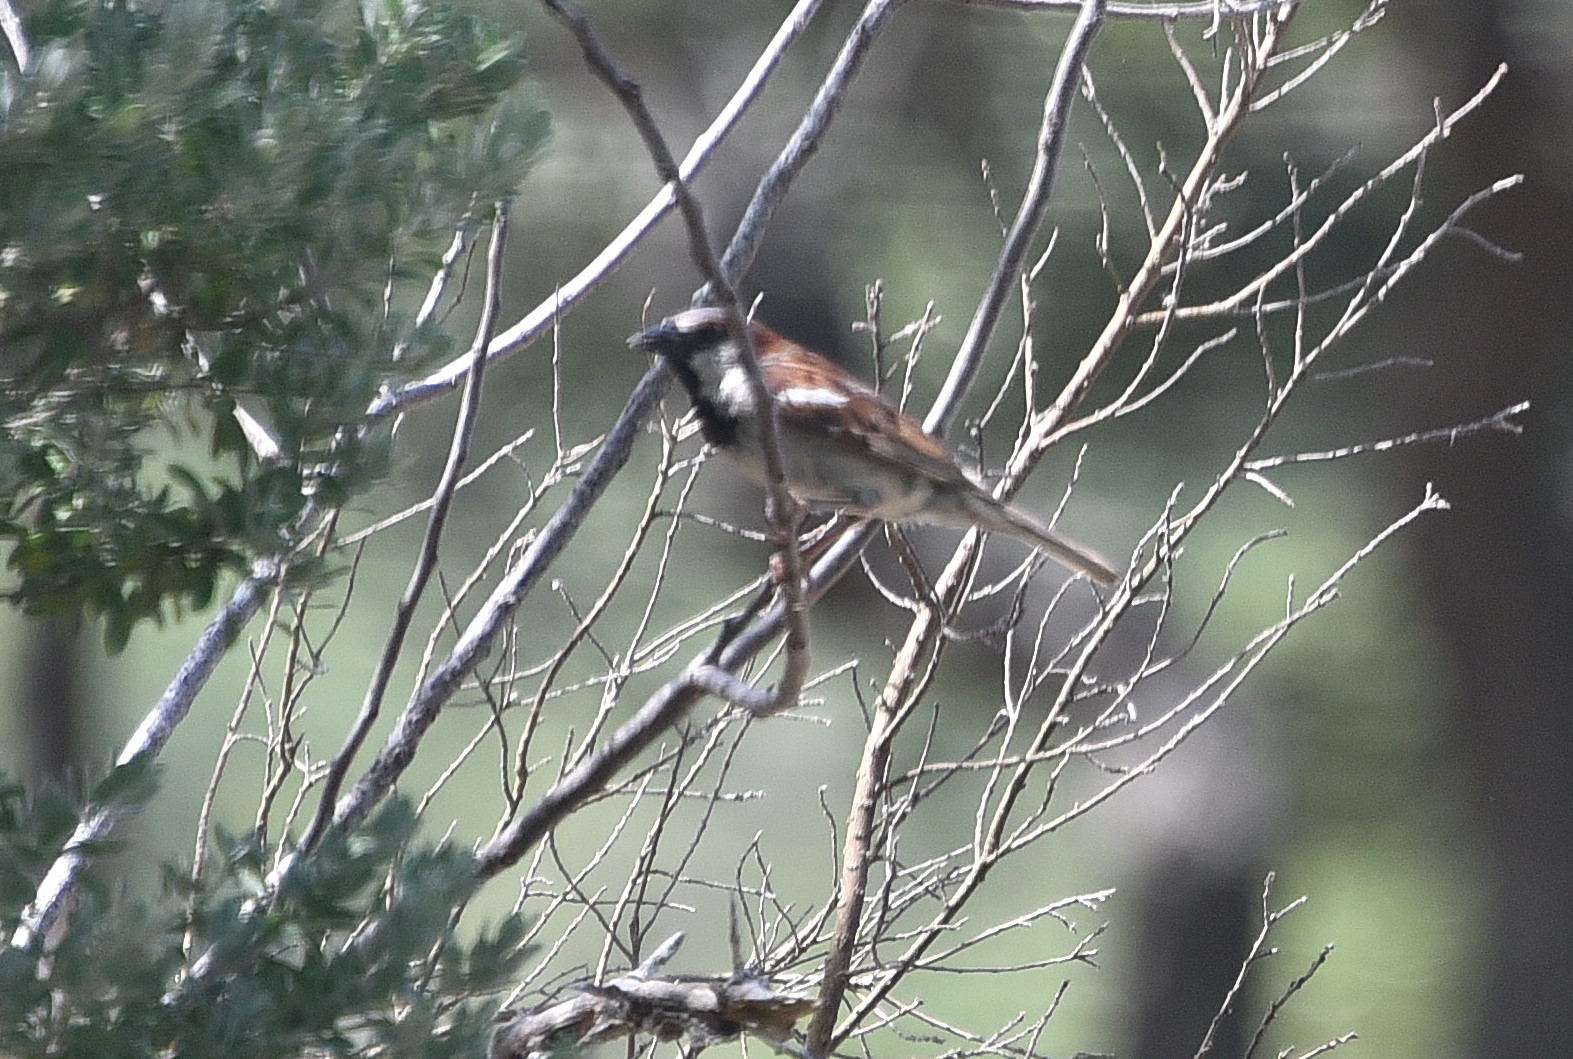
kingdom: Animalia
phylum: Chordata
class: Aves
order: Passeriformes
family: Passeridae
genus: Passer
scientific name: Passer domesticus
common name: House sparrow
